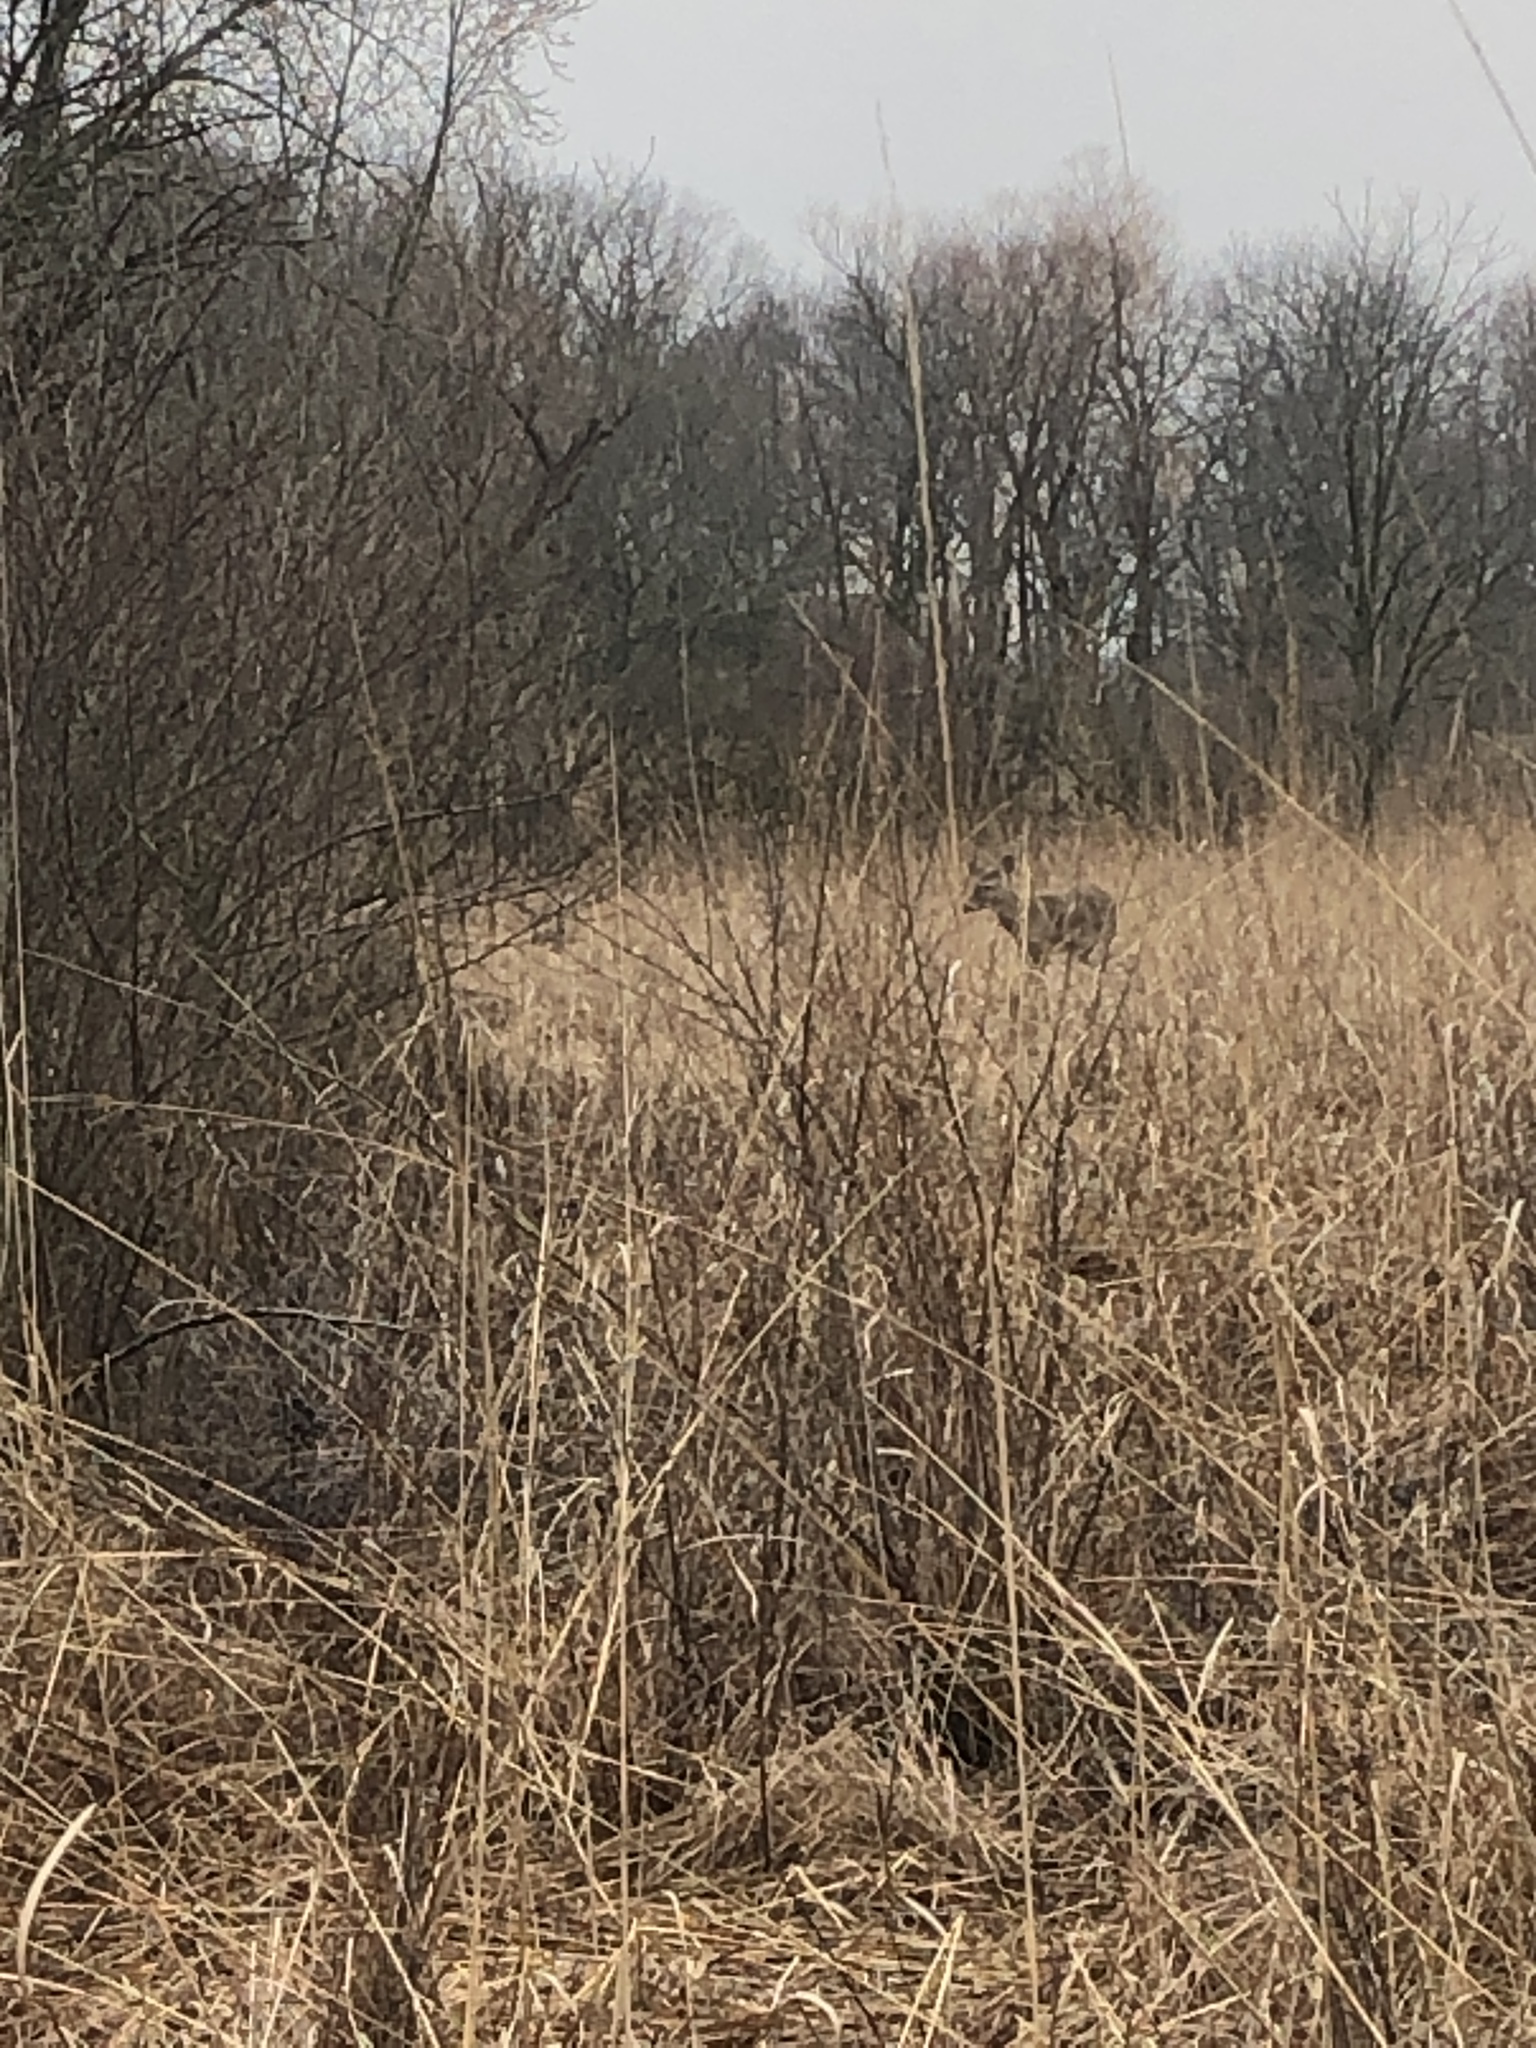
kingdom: Animalia
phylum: Chordata
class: Mammalia
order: Artiodactyla
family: Cervidae
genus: Odocoileus
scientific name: Odocoileus virginianus
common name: White-tailed deer
